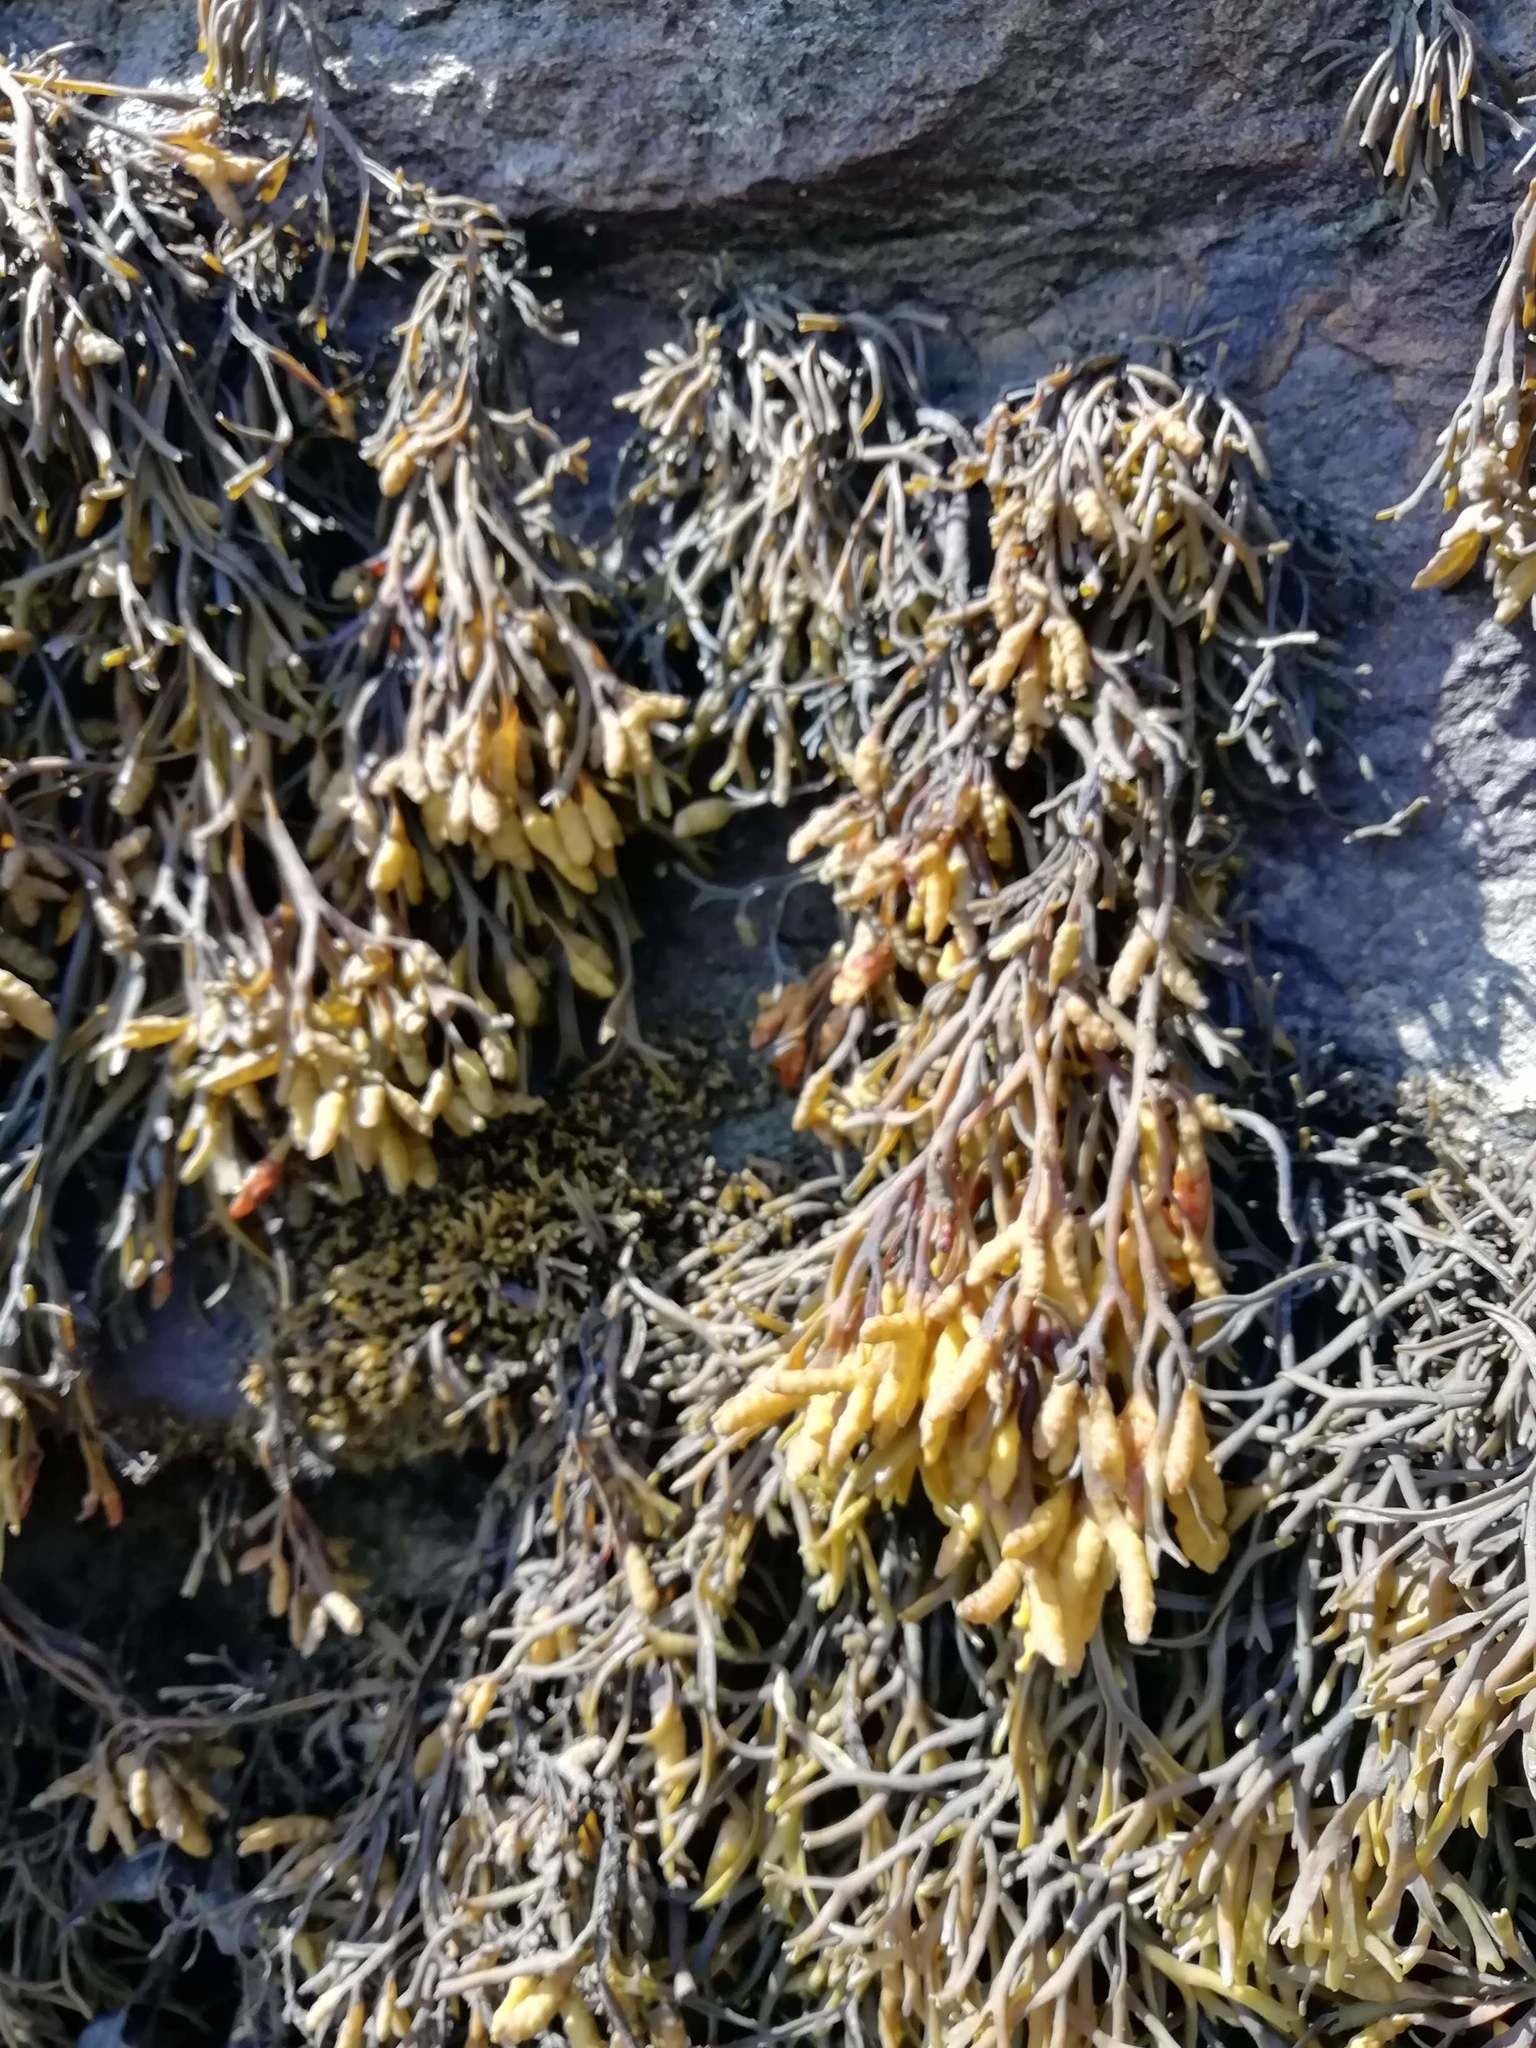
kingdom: Chromista
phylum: Ochrophyta
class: Phaeophyceae
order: Fucales
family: Fucaceae
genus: Pelvetia
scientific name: Pelvetia canaliculata
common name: Channelled wrack
